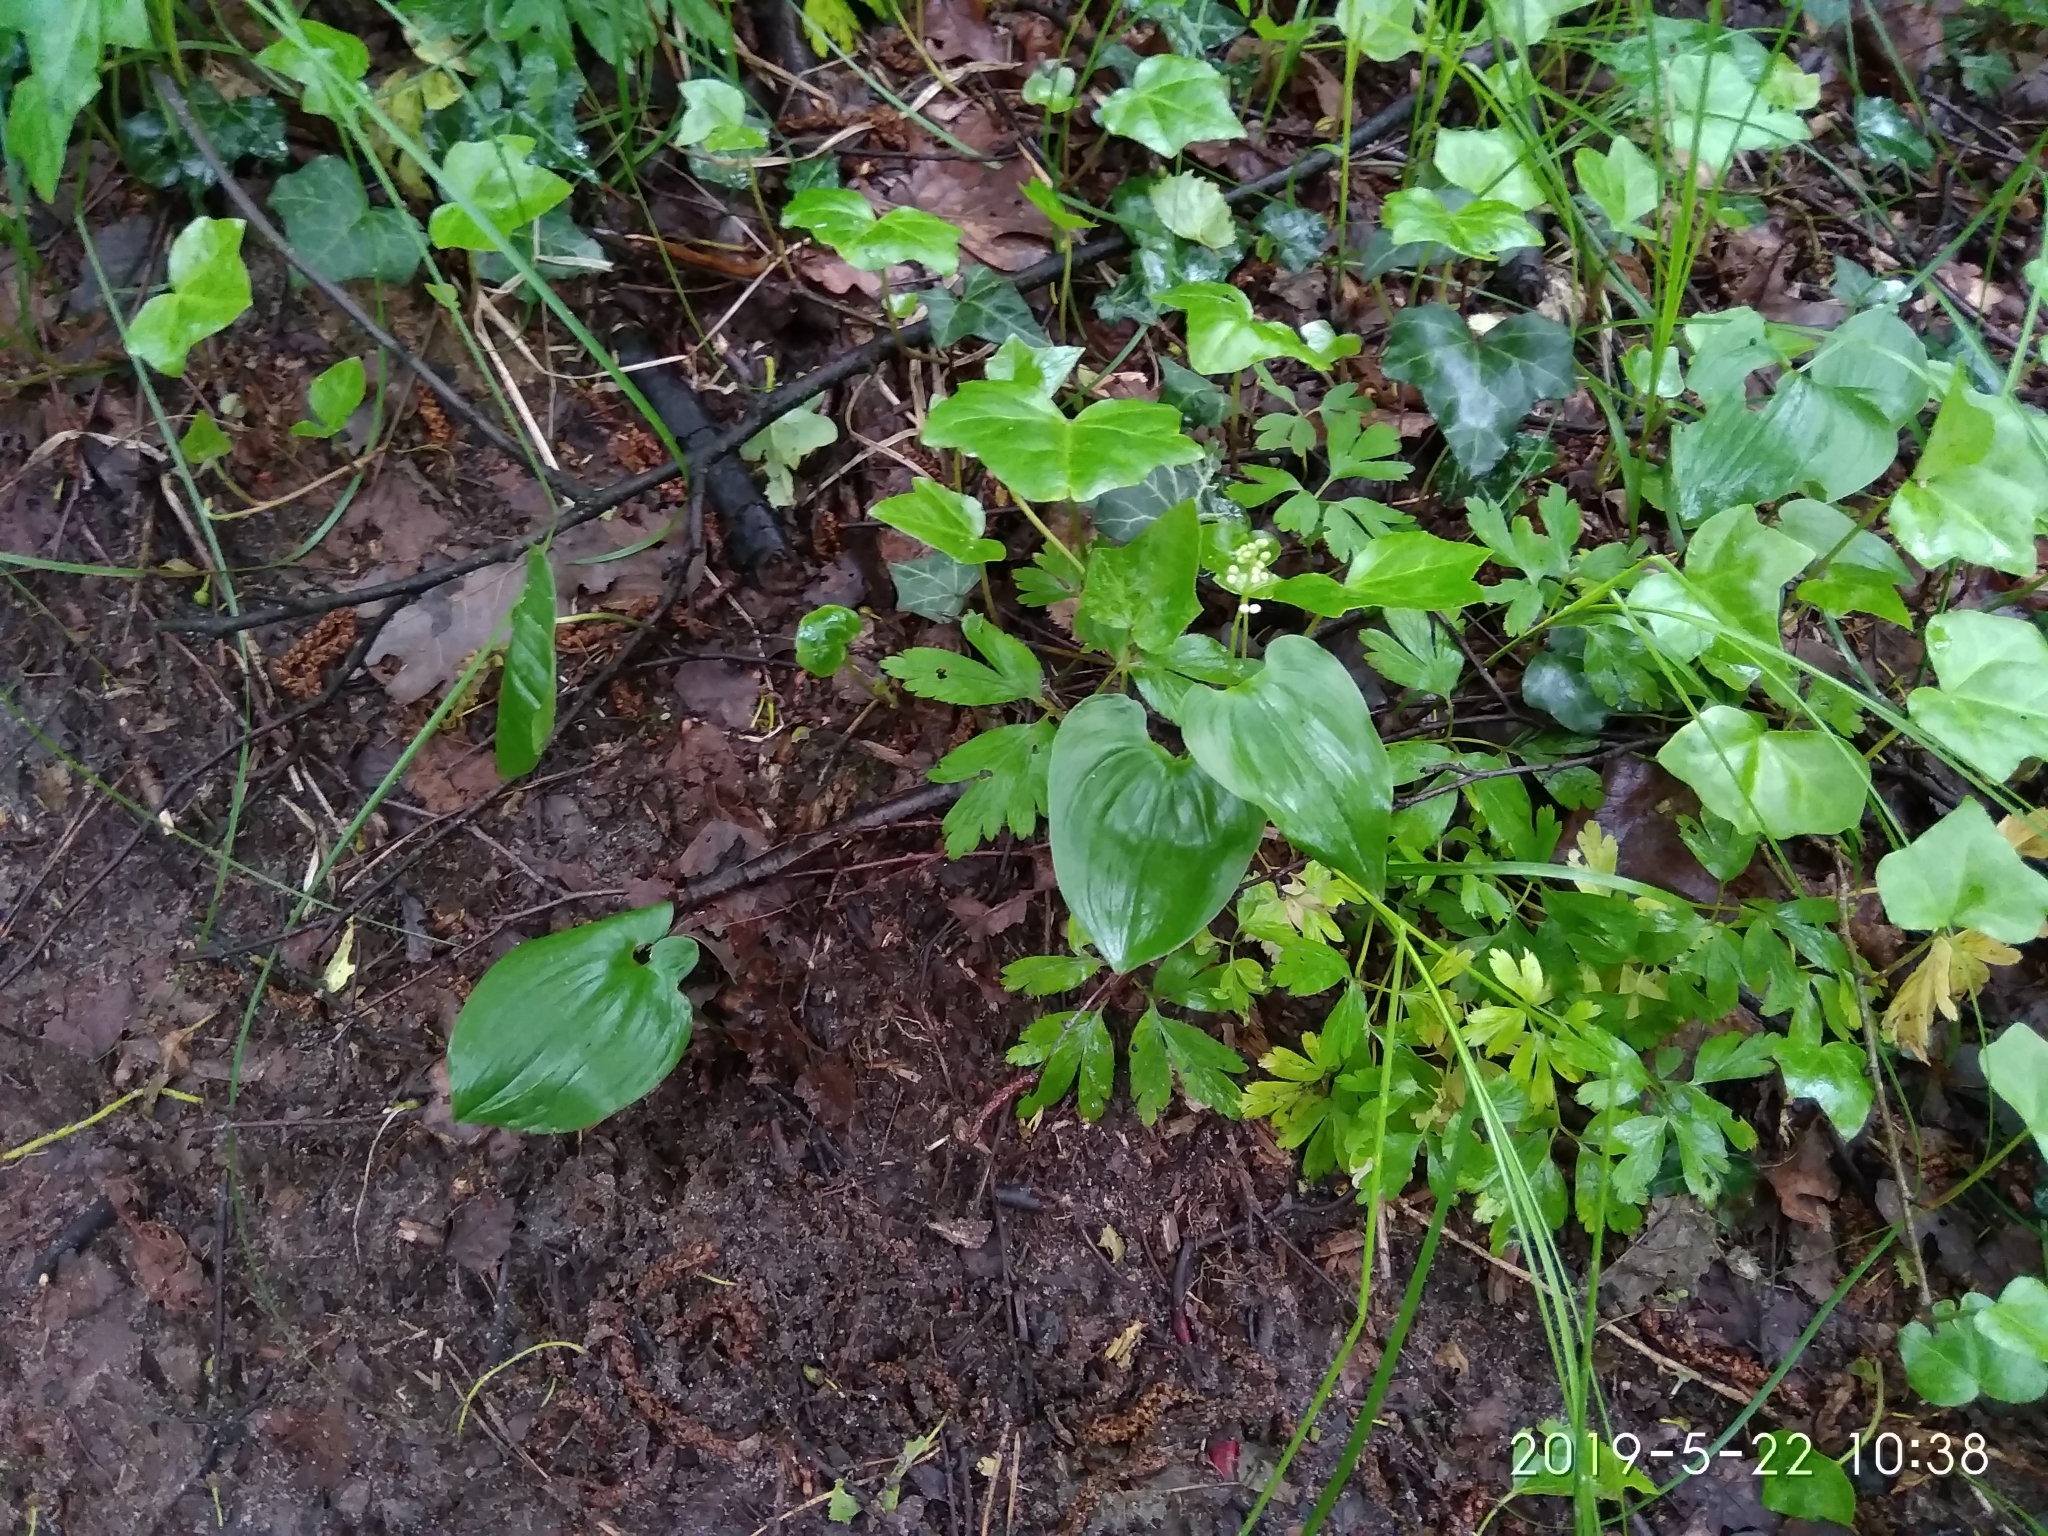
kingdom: Plantae
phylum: Tracheophyta
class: Liliopsida
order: Asparagales
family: Asparagaceae
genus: Maianthemum
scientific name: Maianthemum bifolium
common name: May lily
